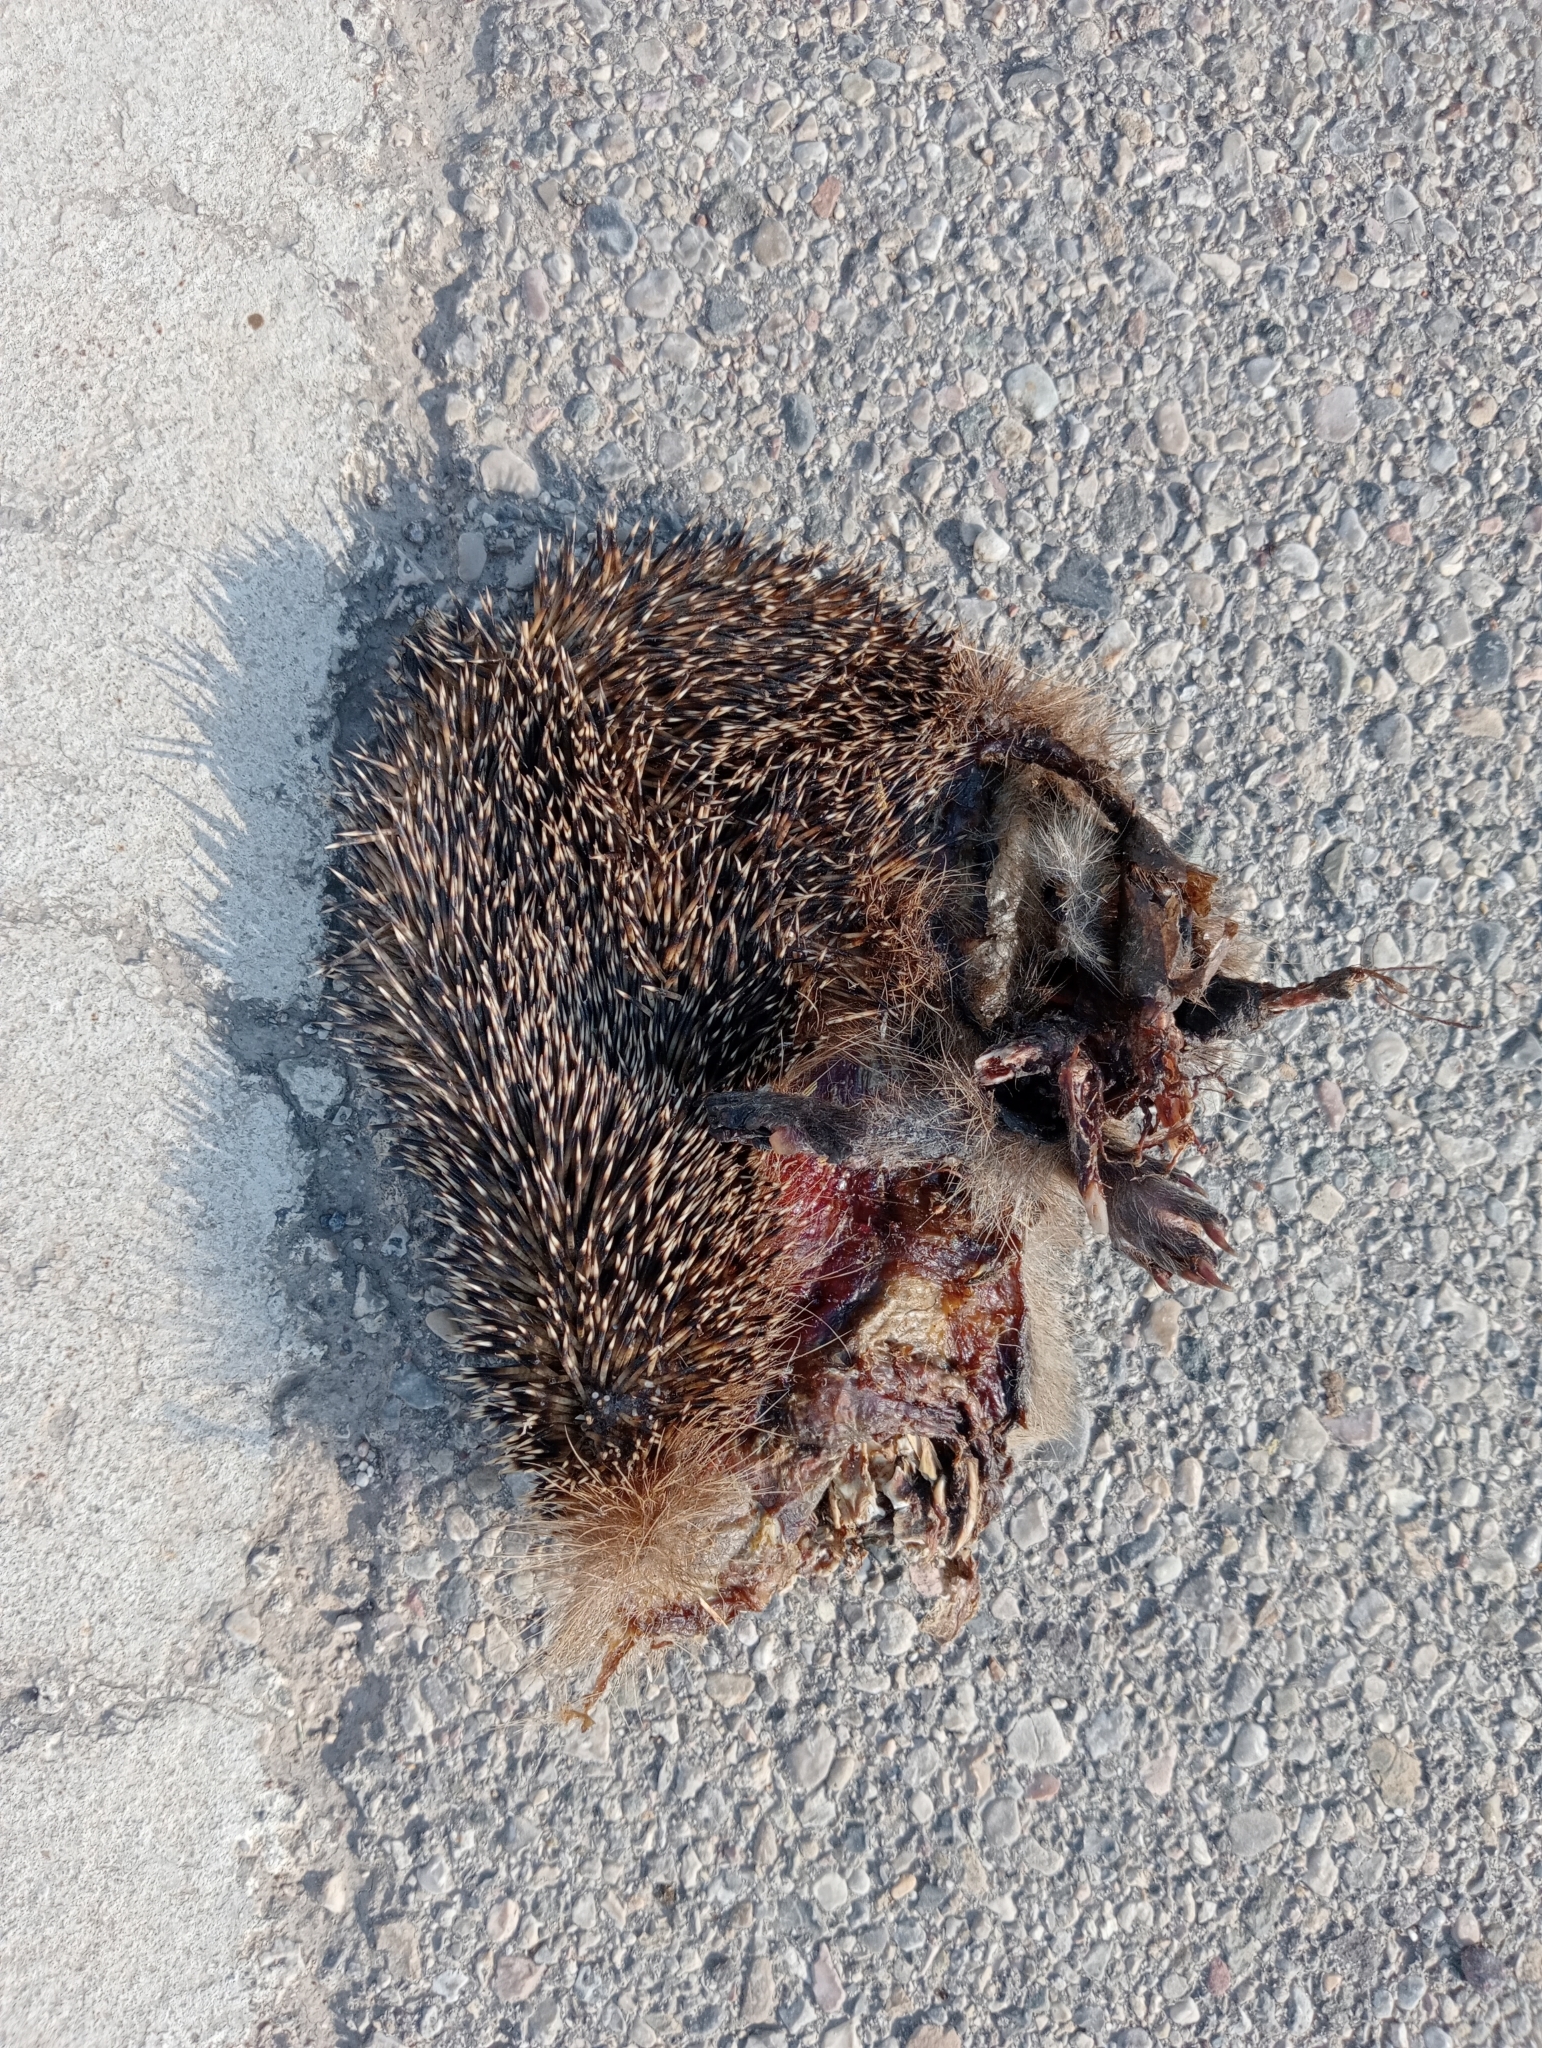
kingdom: Animalia
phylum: Chordata
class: Mammalia
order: Erinaceomorpha
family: Erinaceidae
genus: Erinaceus
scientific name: Erinaceus europaeus
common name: West european hedgehog
